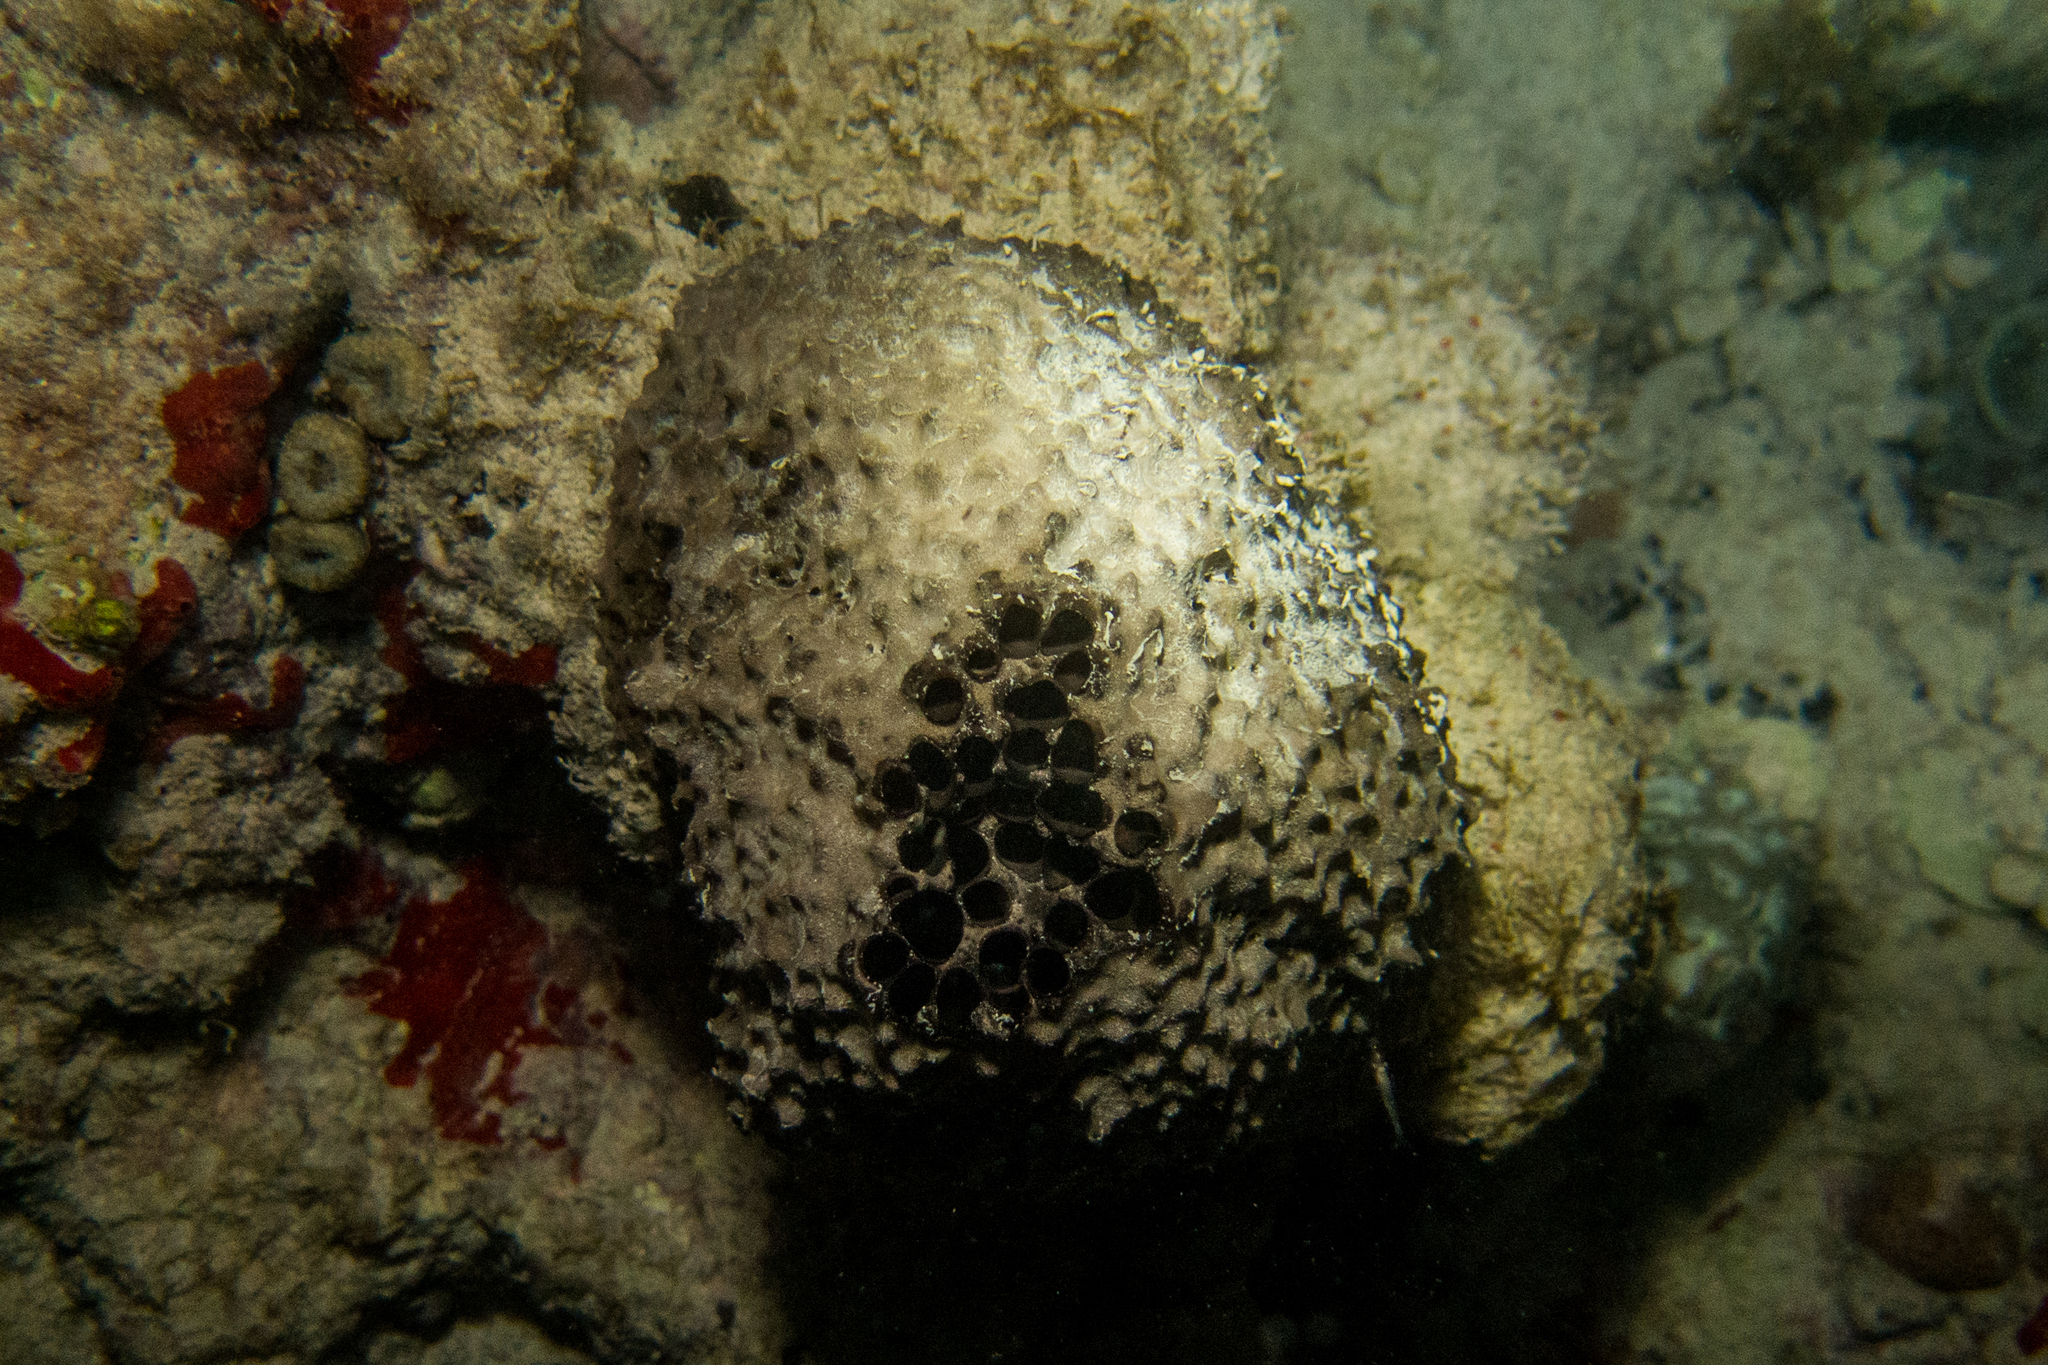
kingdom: Animalia
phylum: Porifera
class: Demospongiae
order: Dictyoceratida
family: Irciniidae
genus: Ircinia
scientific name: Ircinia strobilina
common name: Cake sponge
